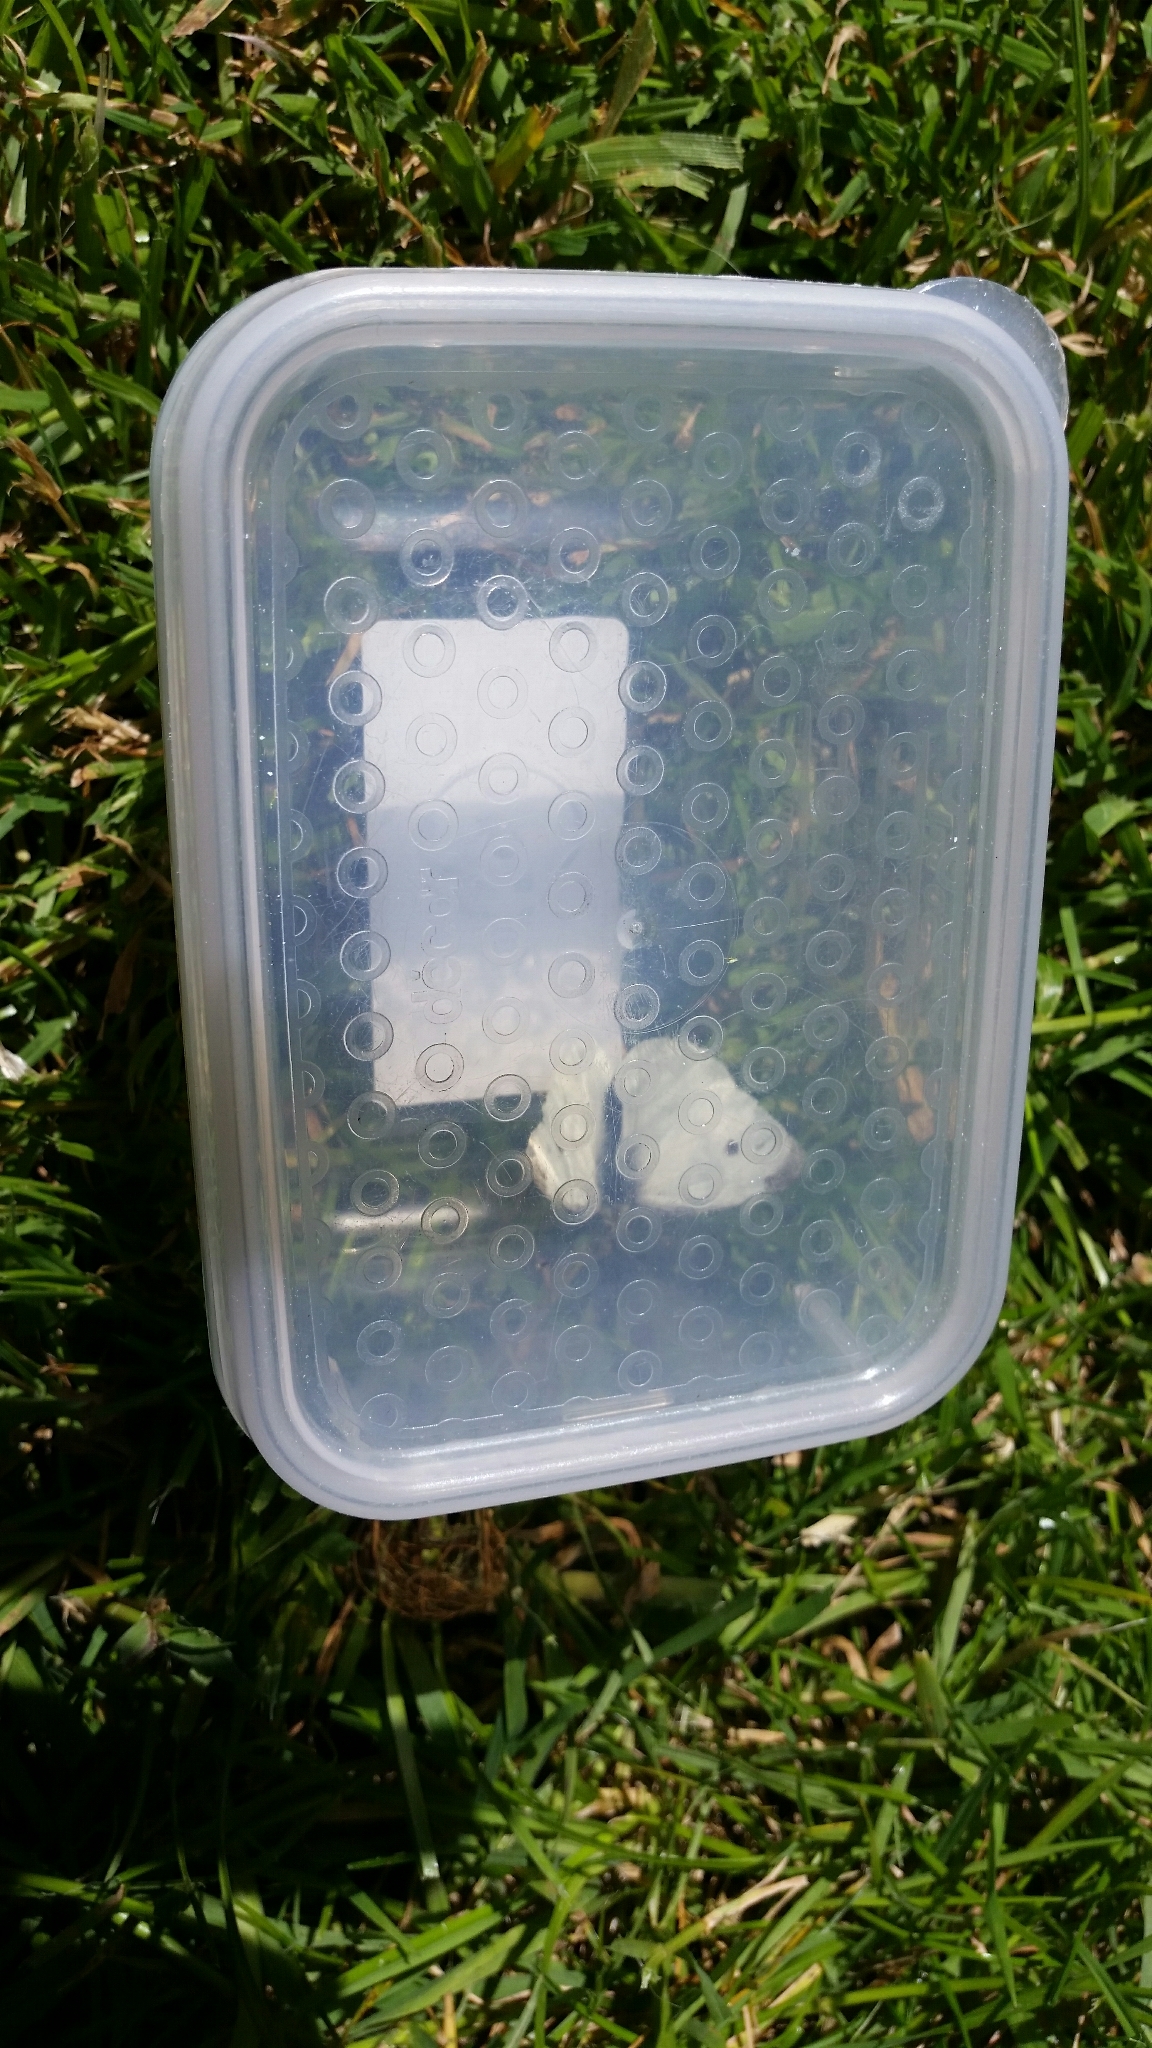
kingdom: Animalia
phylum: Arthropoda
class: Insecta
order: Lepidoptera
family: Pieridae
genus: Pieris
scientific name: Pieris rapae
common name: Small white
